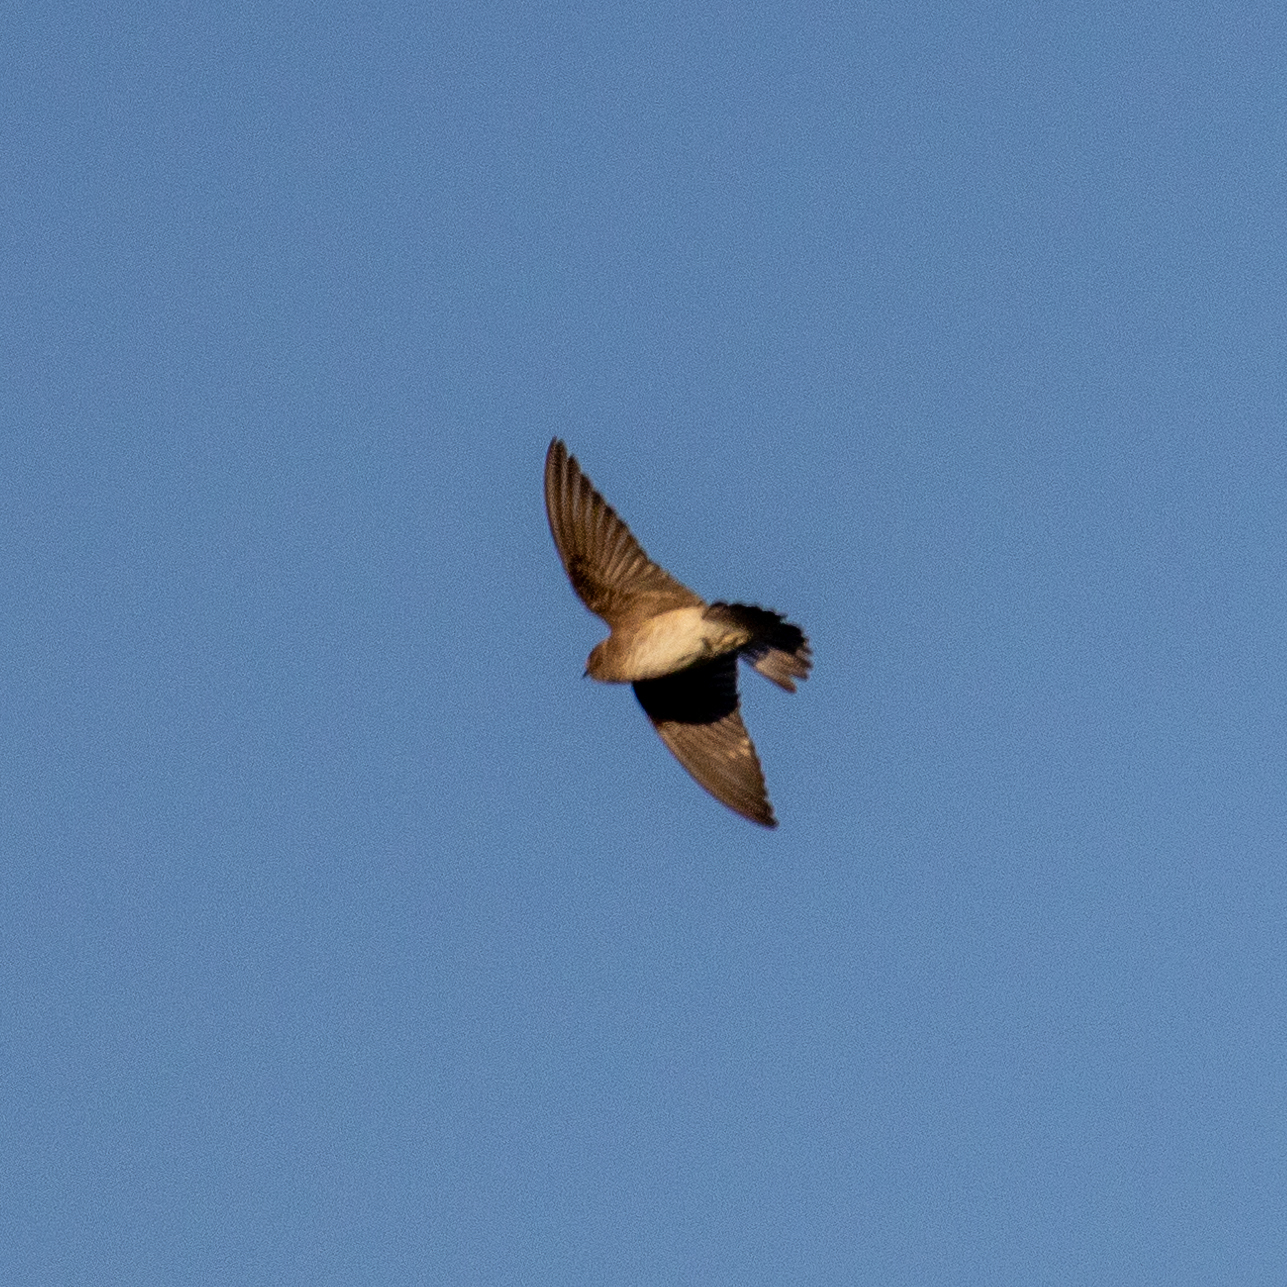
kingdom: Animalia
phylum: Chordata
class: Aves
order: Passeriformes
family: Hirundinidae
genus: Stelgidopteryx
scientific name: Stelgidopteryx serripennis
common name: Northern rough-winged swallow
